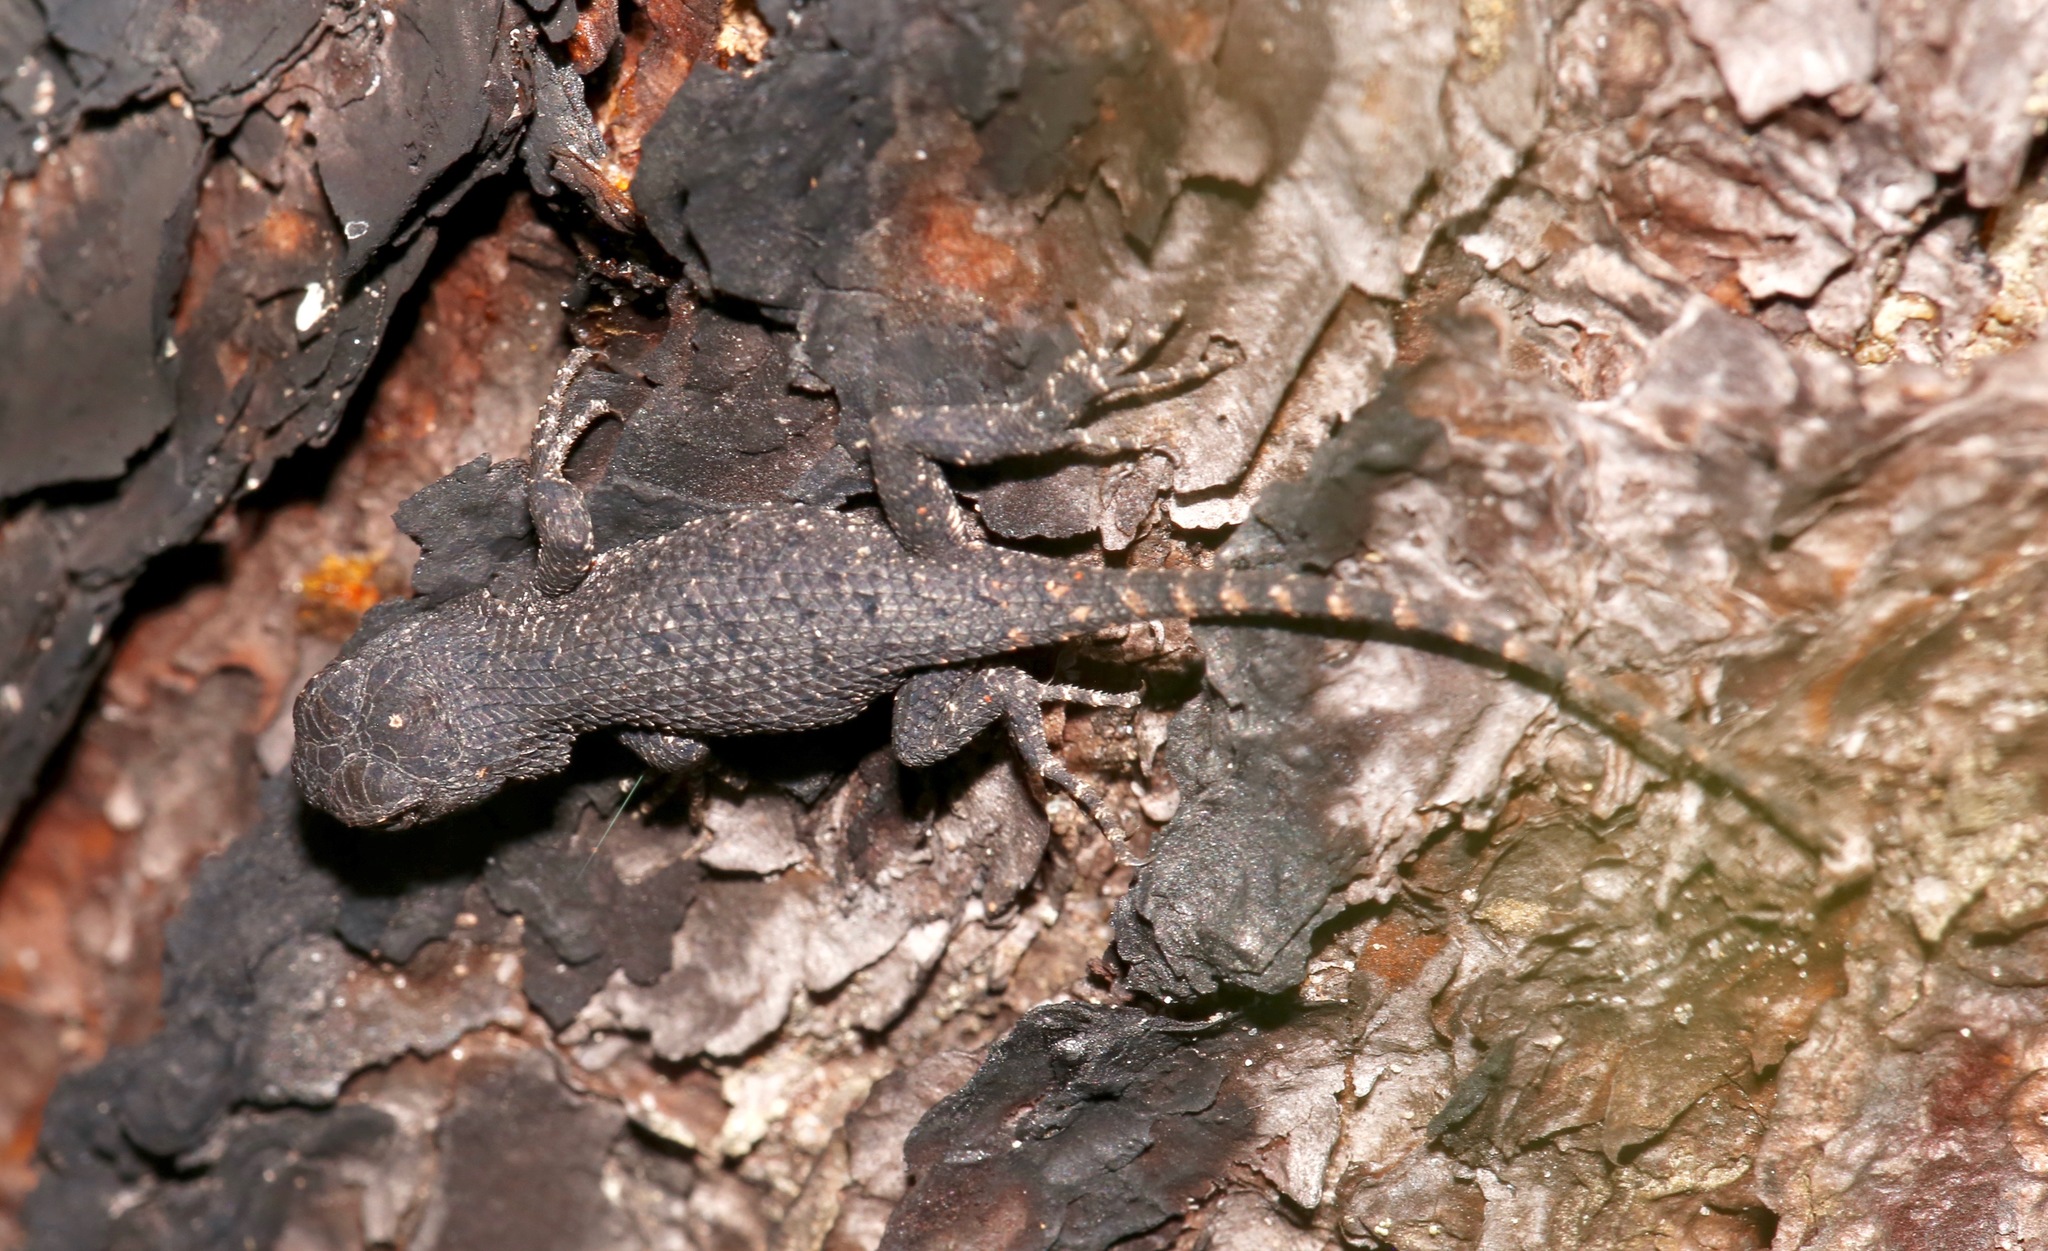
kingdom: Animalia
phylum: Chordata
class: Squamata
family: Phrynosomatidae
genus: Sceloporus
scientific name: Sceloporus undulatus
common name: Eastern fence lizard
